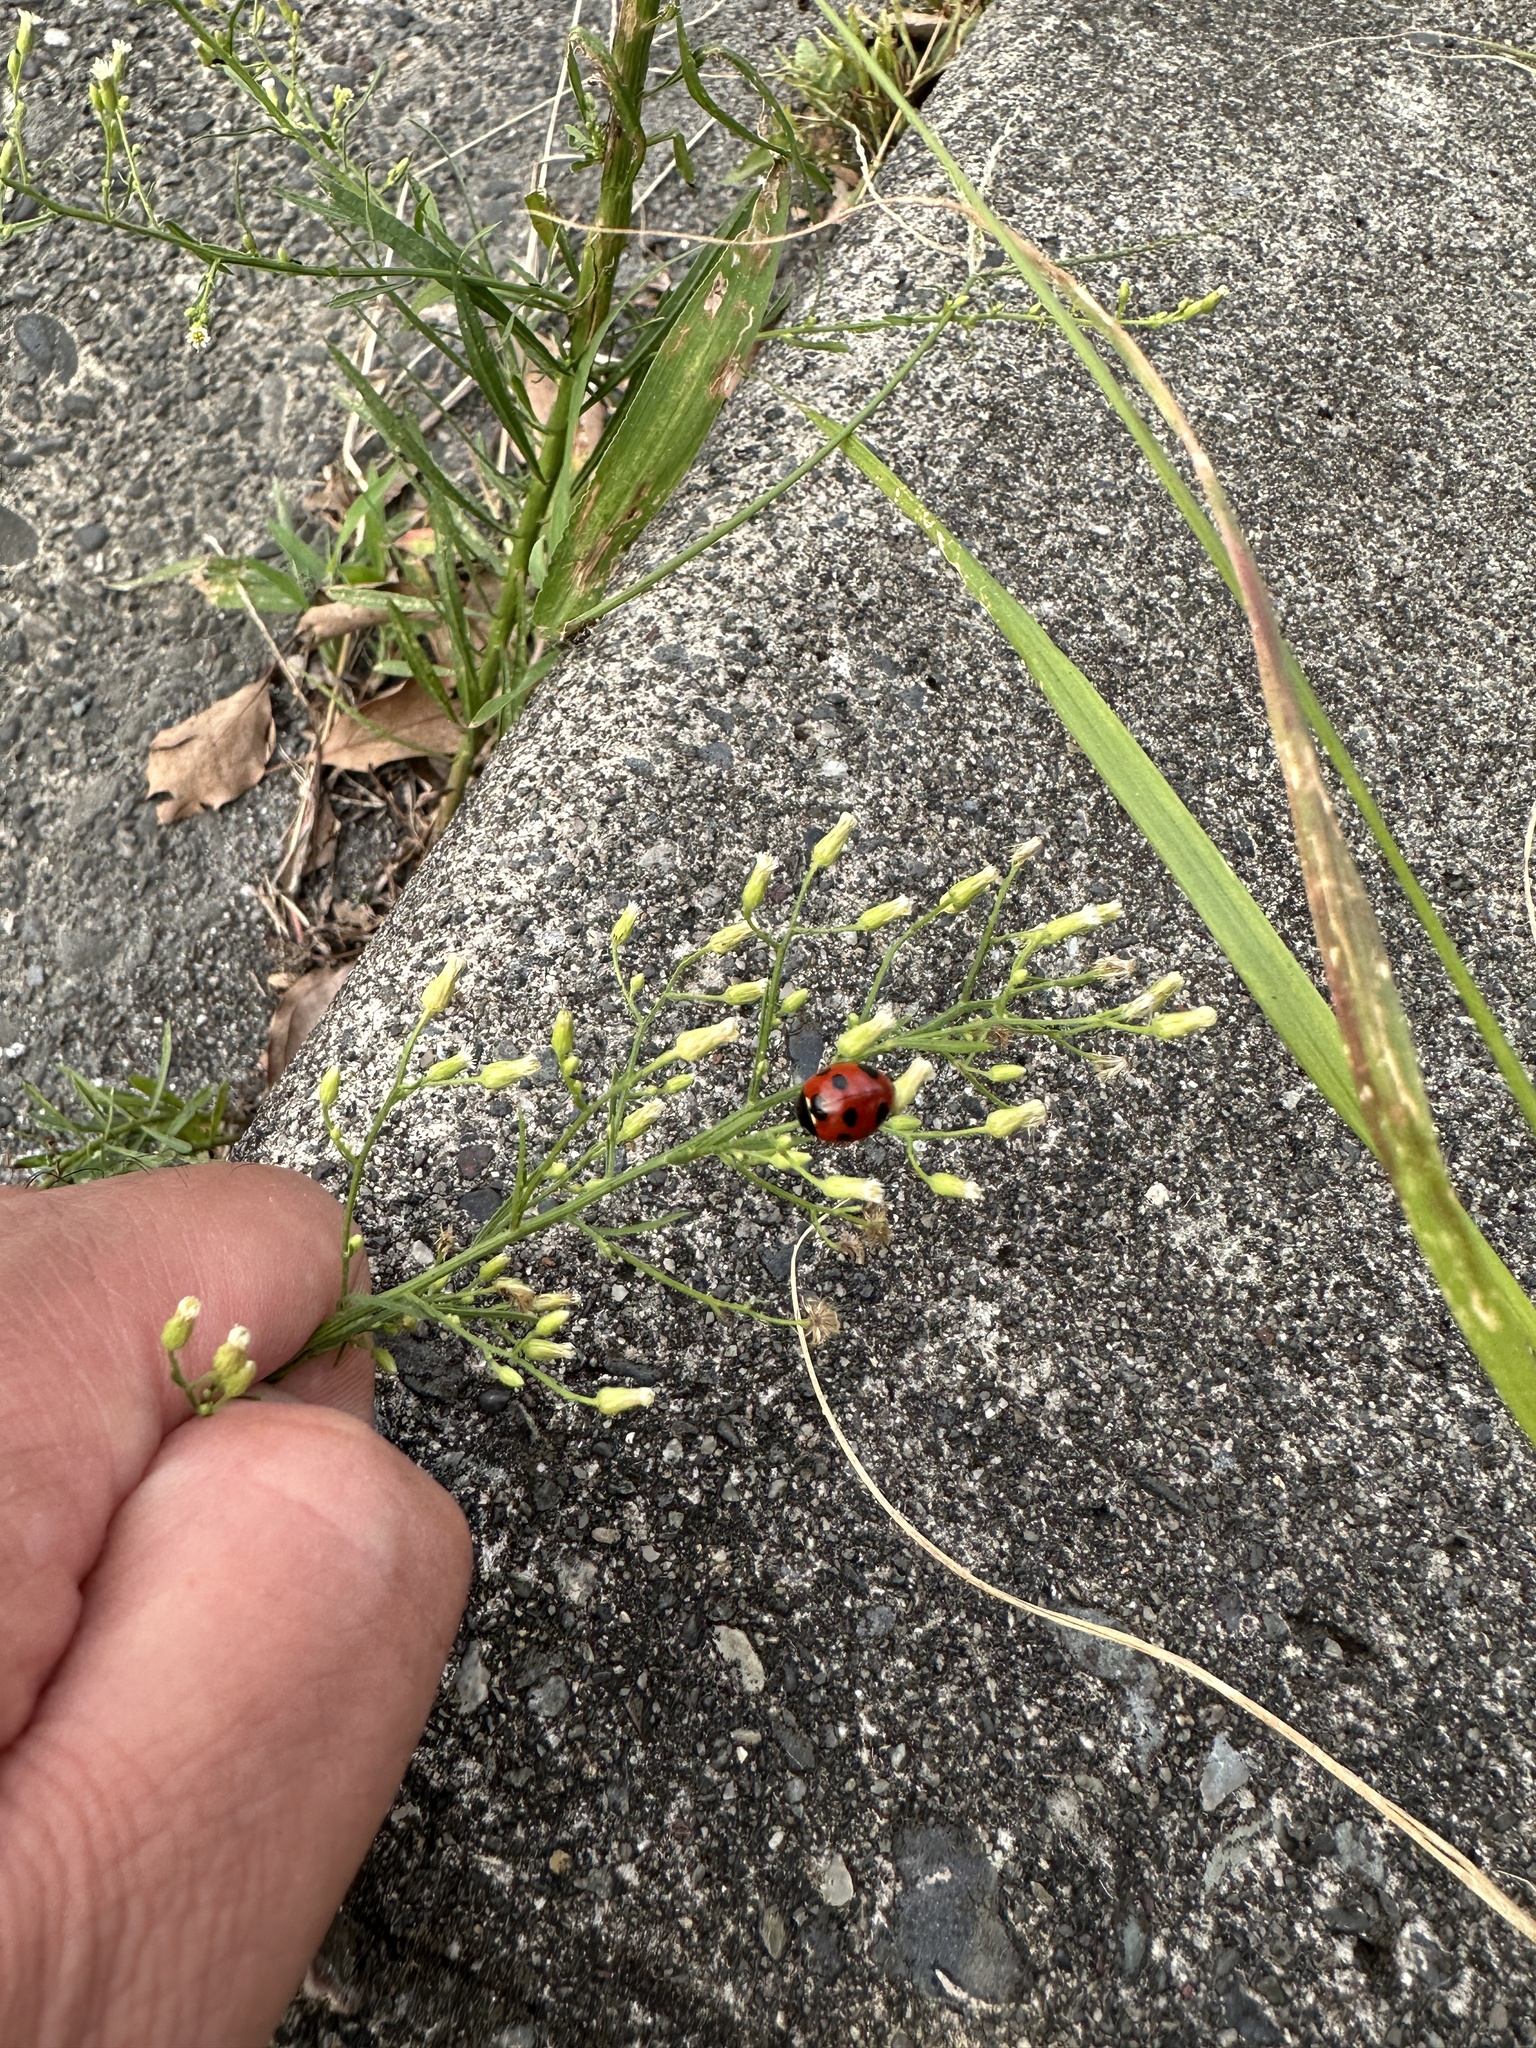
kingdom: Animalia
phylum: Arthropoda
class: Insecta
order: Coleoptera
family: Coccinellidae
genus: Coccinella
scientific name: Coccinella septempunctata
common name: Sevenspotted lady beetle
